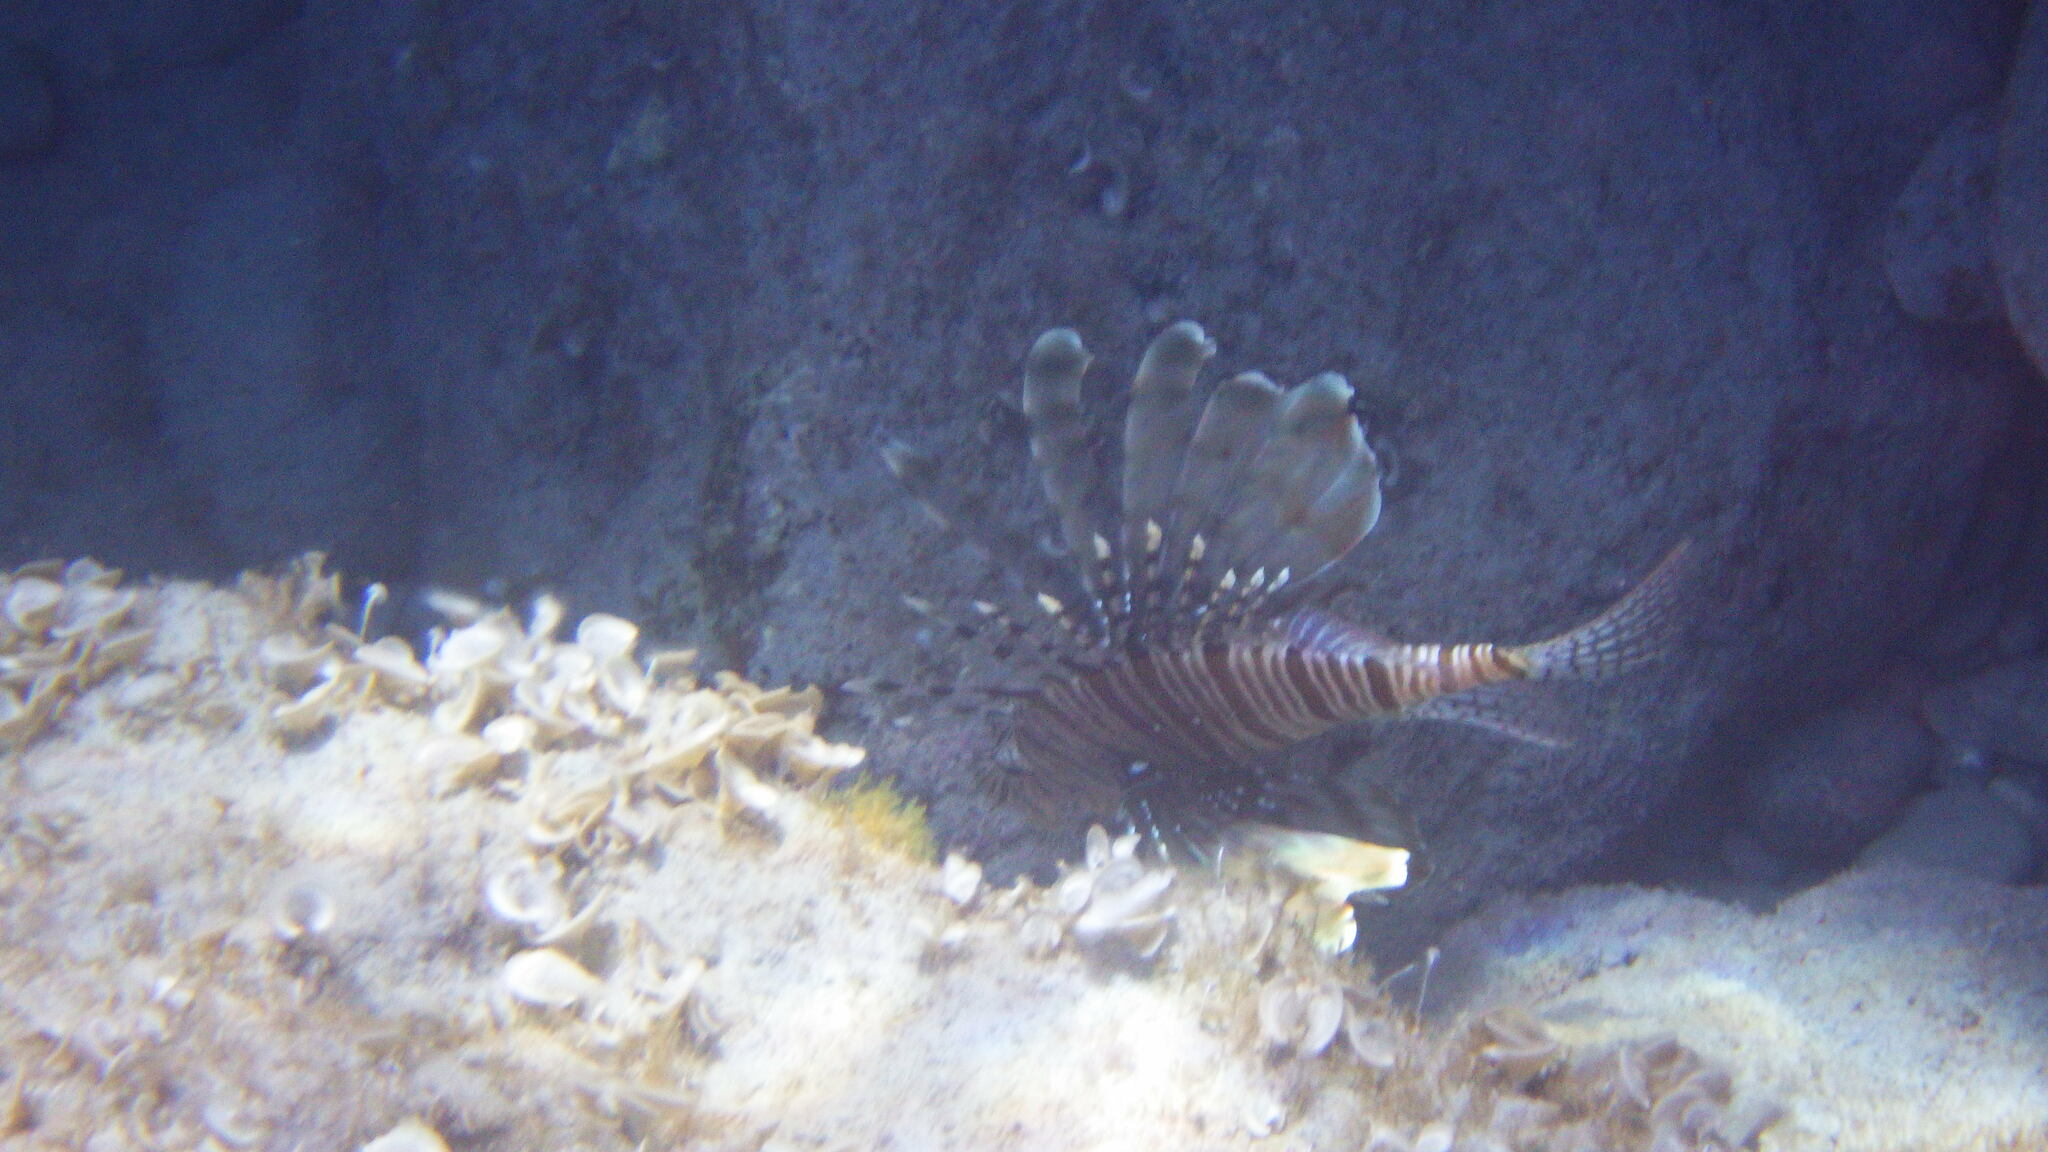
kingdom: Animalia
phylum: Chordata
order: Scorpaeniformes
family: Scorpaenidae
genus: Pterois
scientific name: Pterois miles
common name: Devil firefish
